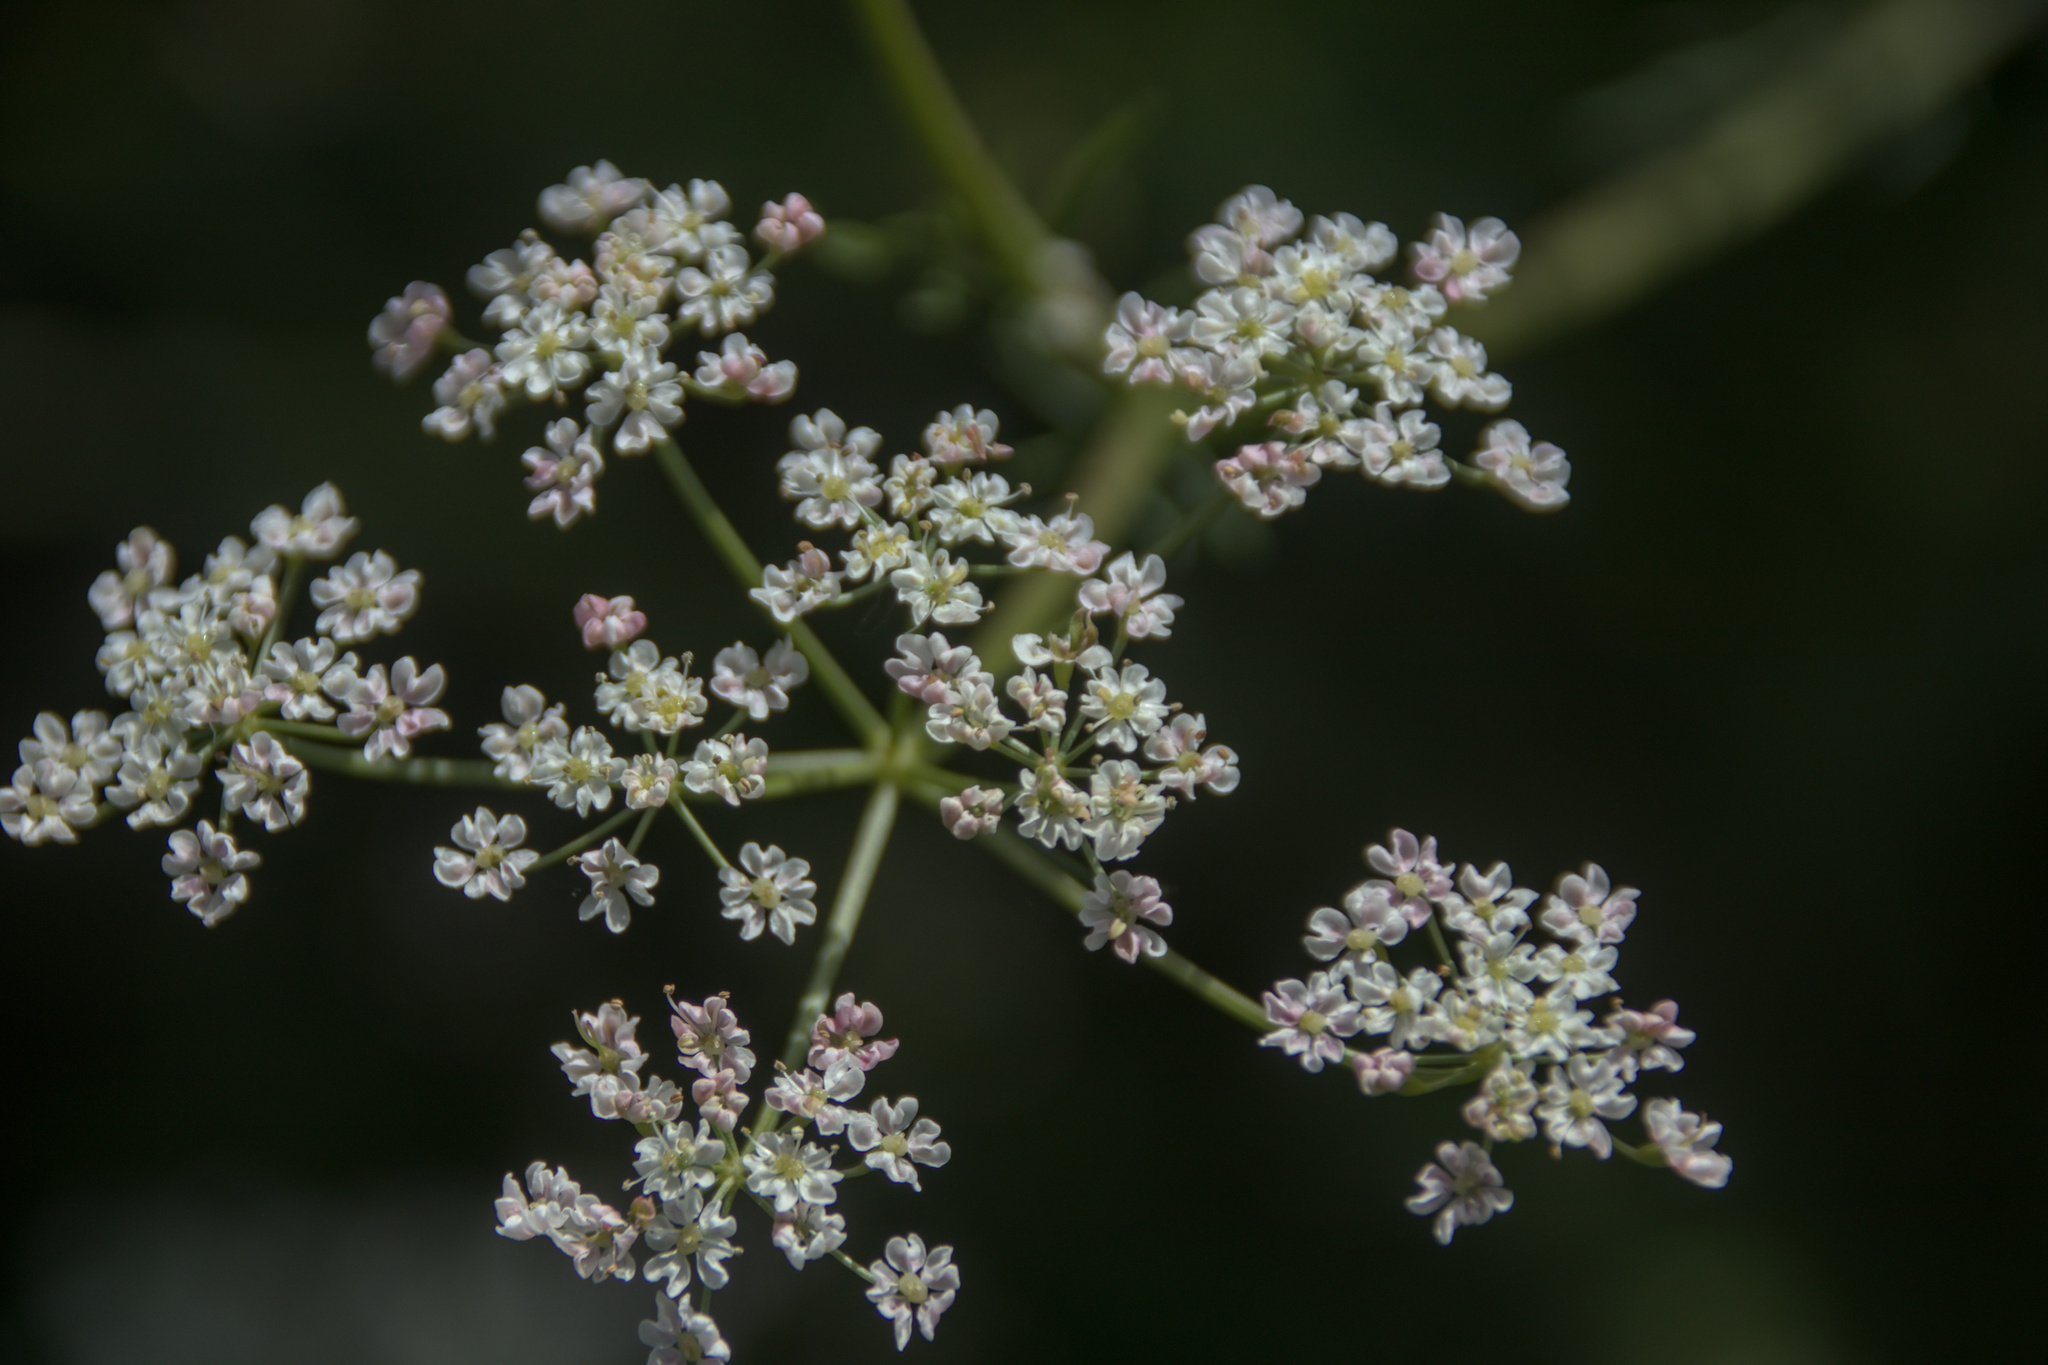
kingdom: Plantae
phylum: Tracheophyta
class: Magnoliopsida
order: Apiales
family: Apiaceae
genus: Carum
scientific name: Carum carvi
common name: Caraway
